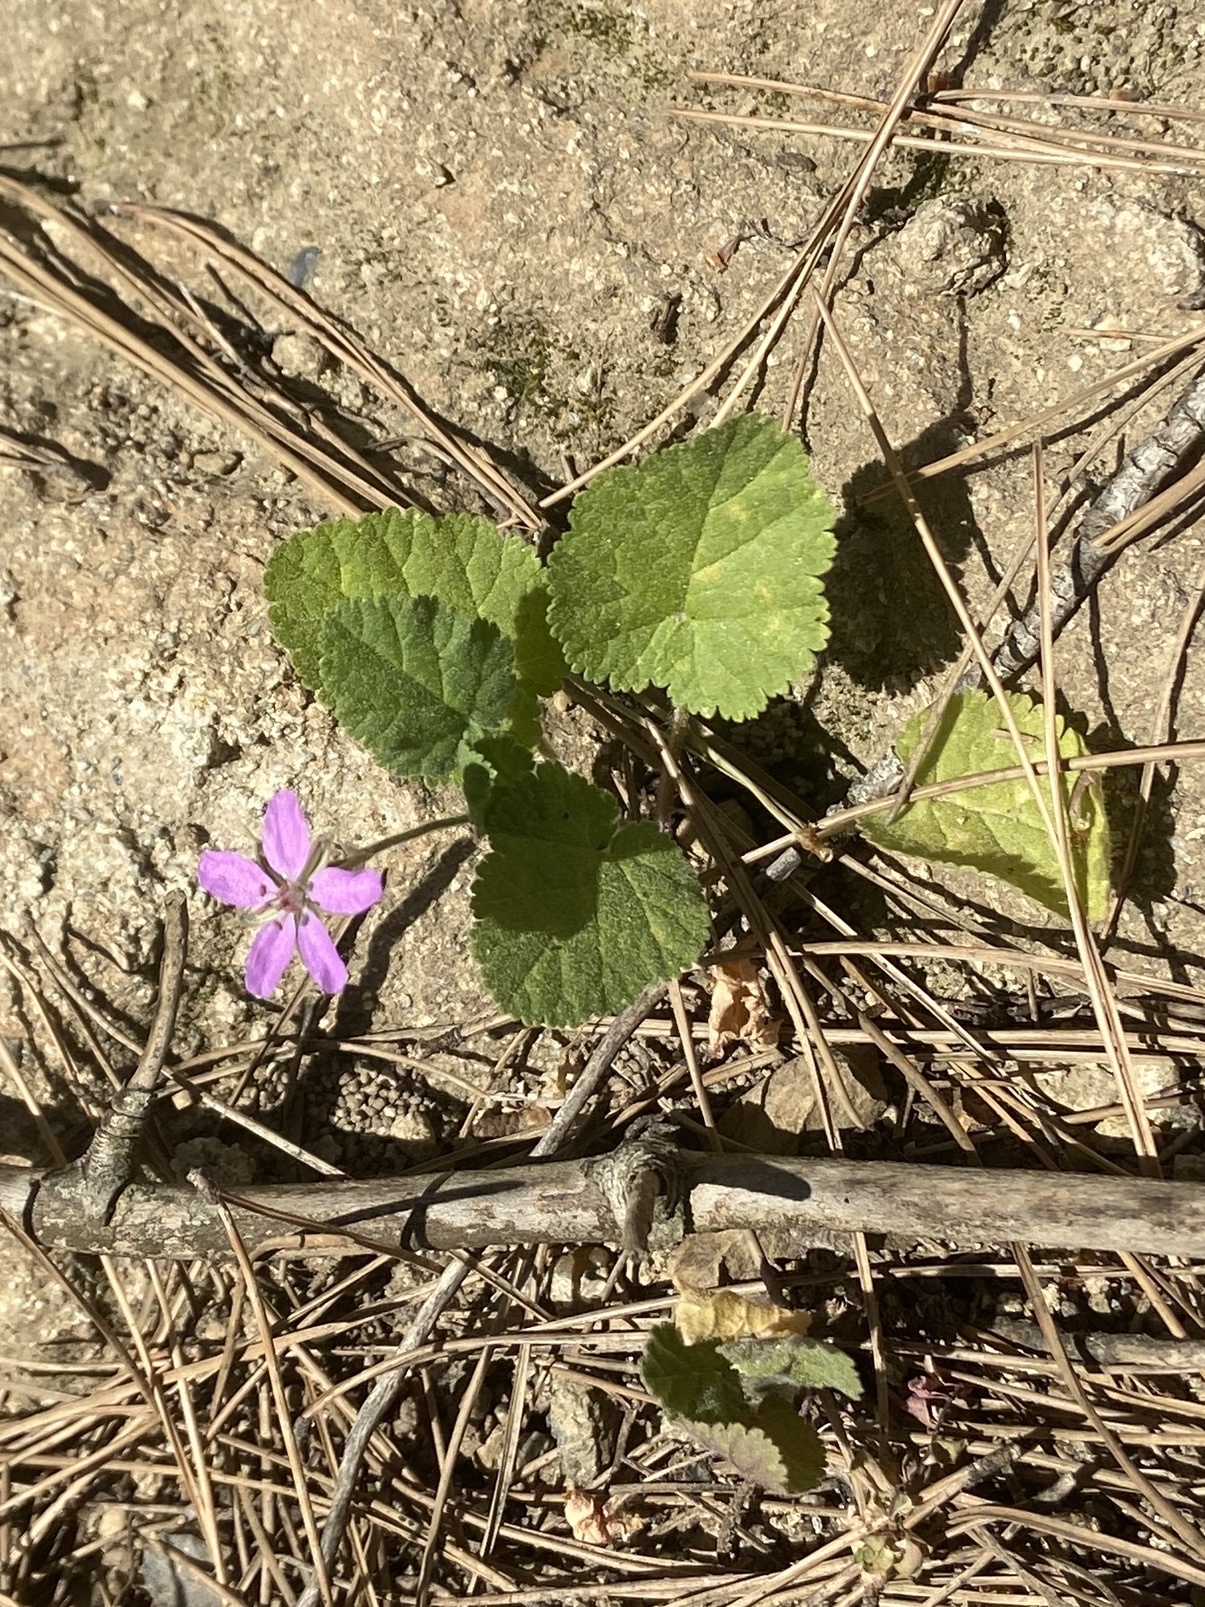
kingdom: Plantae
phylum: Tracheophyta
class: Magnoliopsida
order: Geraniales
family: Geraniaceae
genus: Erodium
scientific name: Erodium malacoides
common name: Soft stork's-bill
